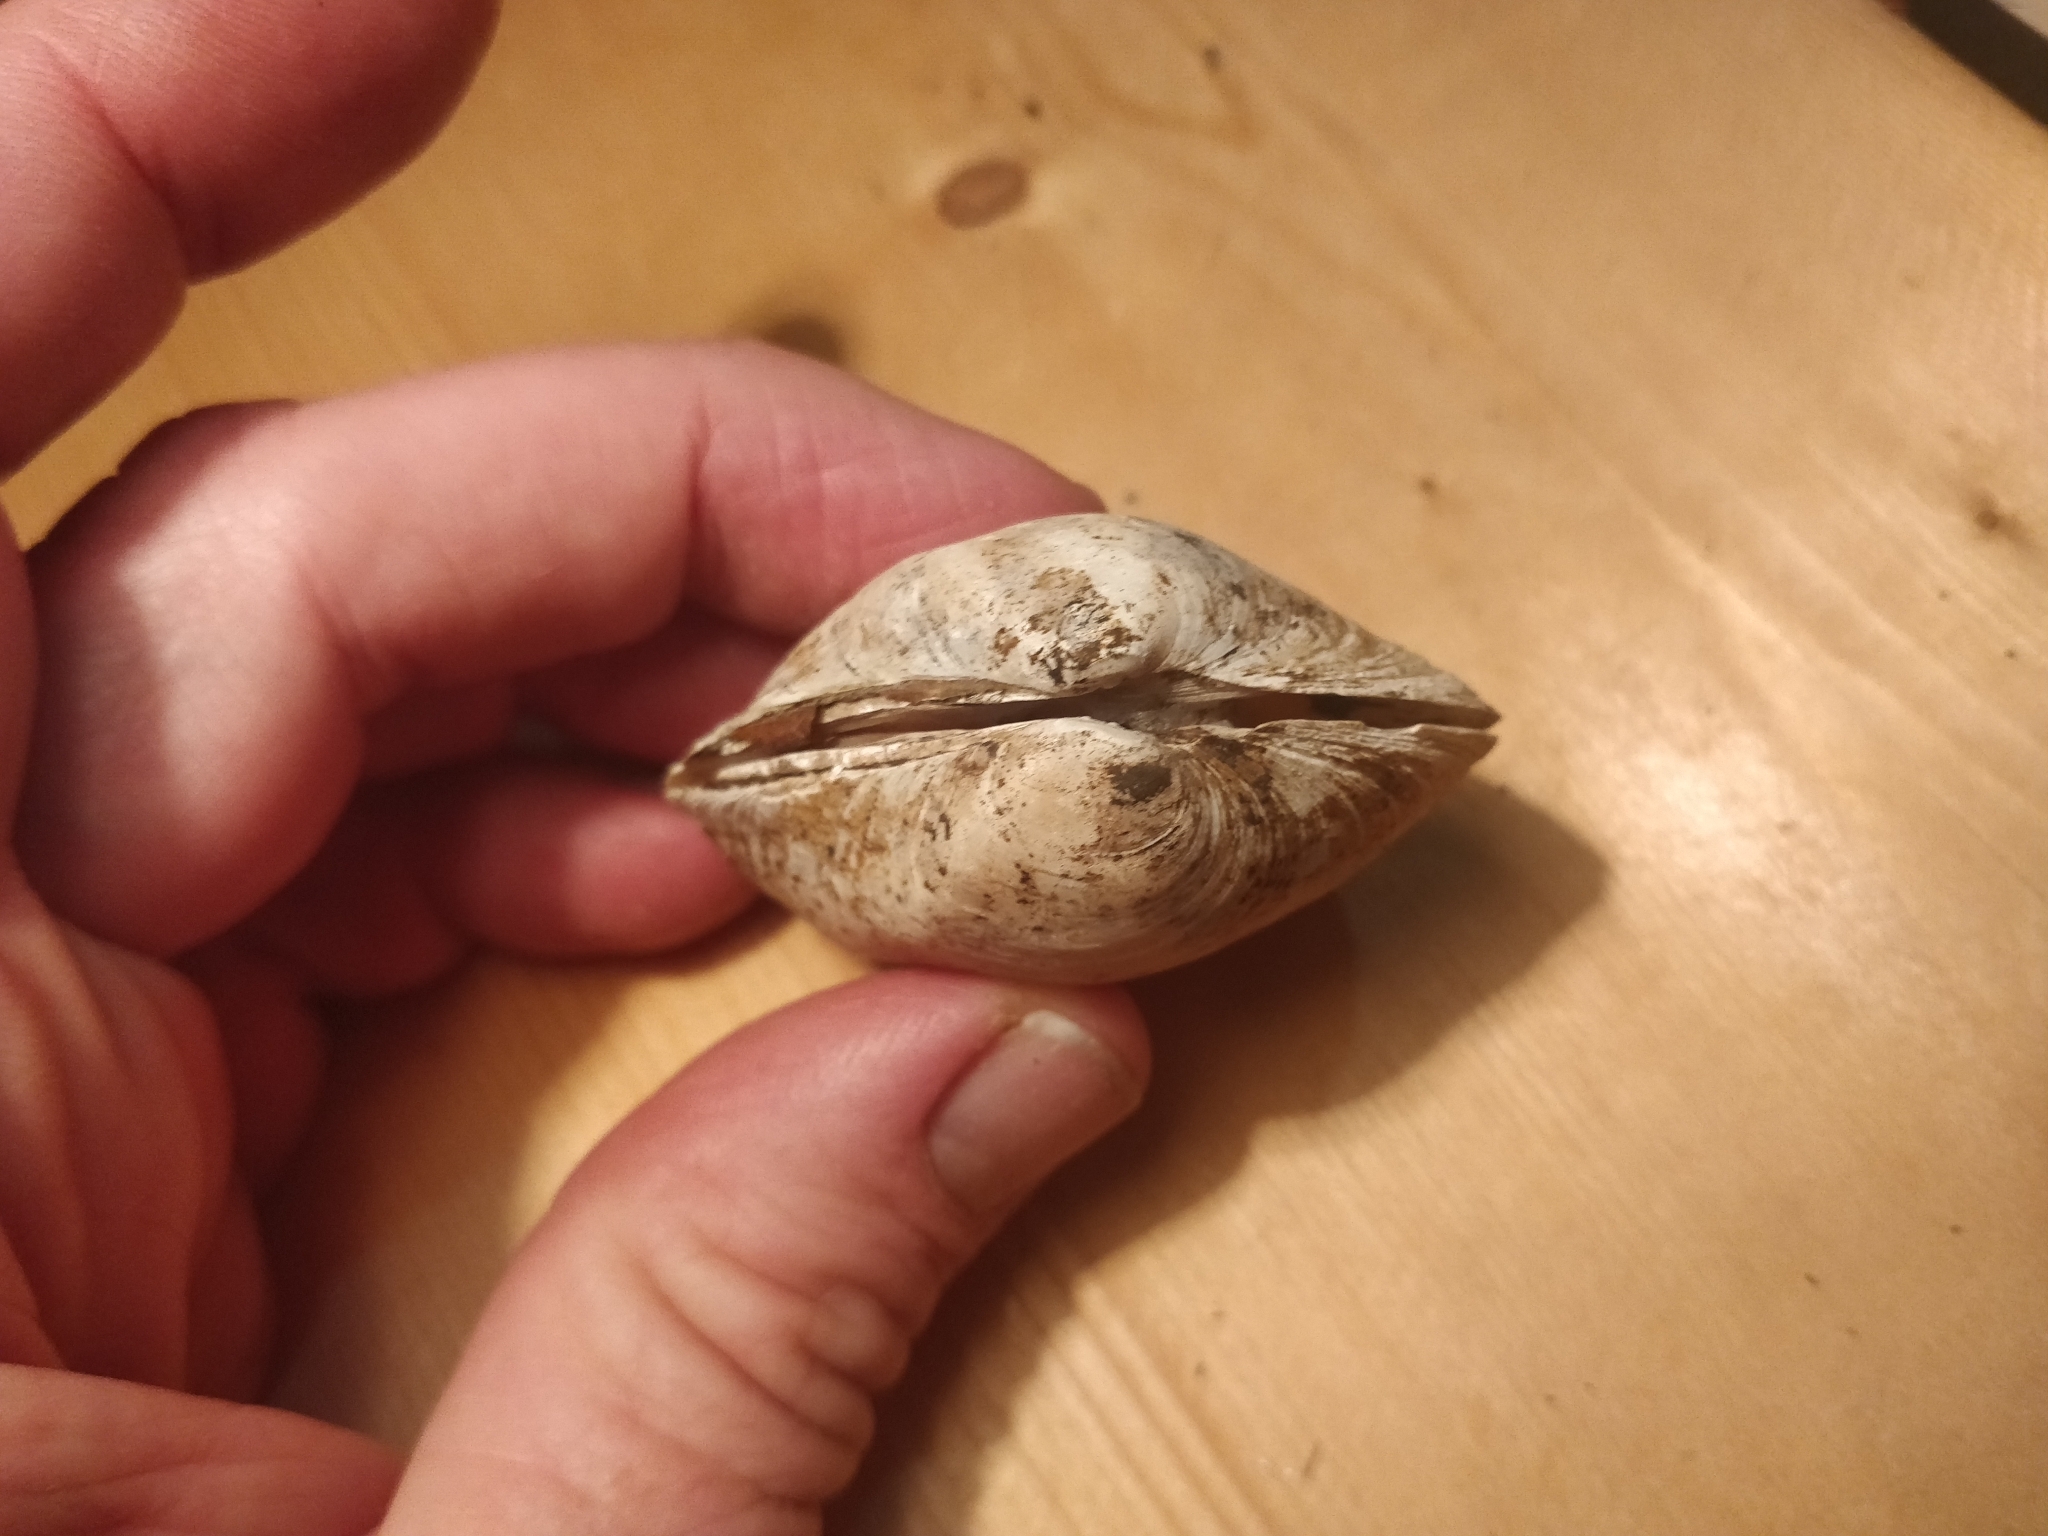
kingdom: Animalia
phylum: Mollusca
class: Bivalvia
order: Unionida
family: Unionidae
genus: Cyclonaias
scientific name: Cyclonaias pustulosa
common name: Pimpleback
